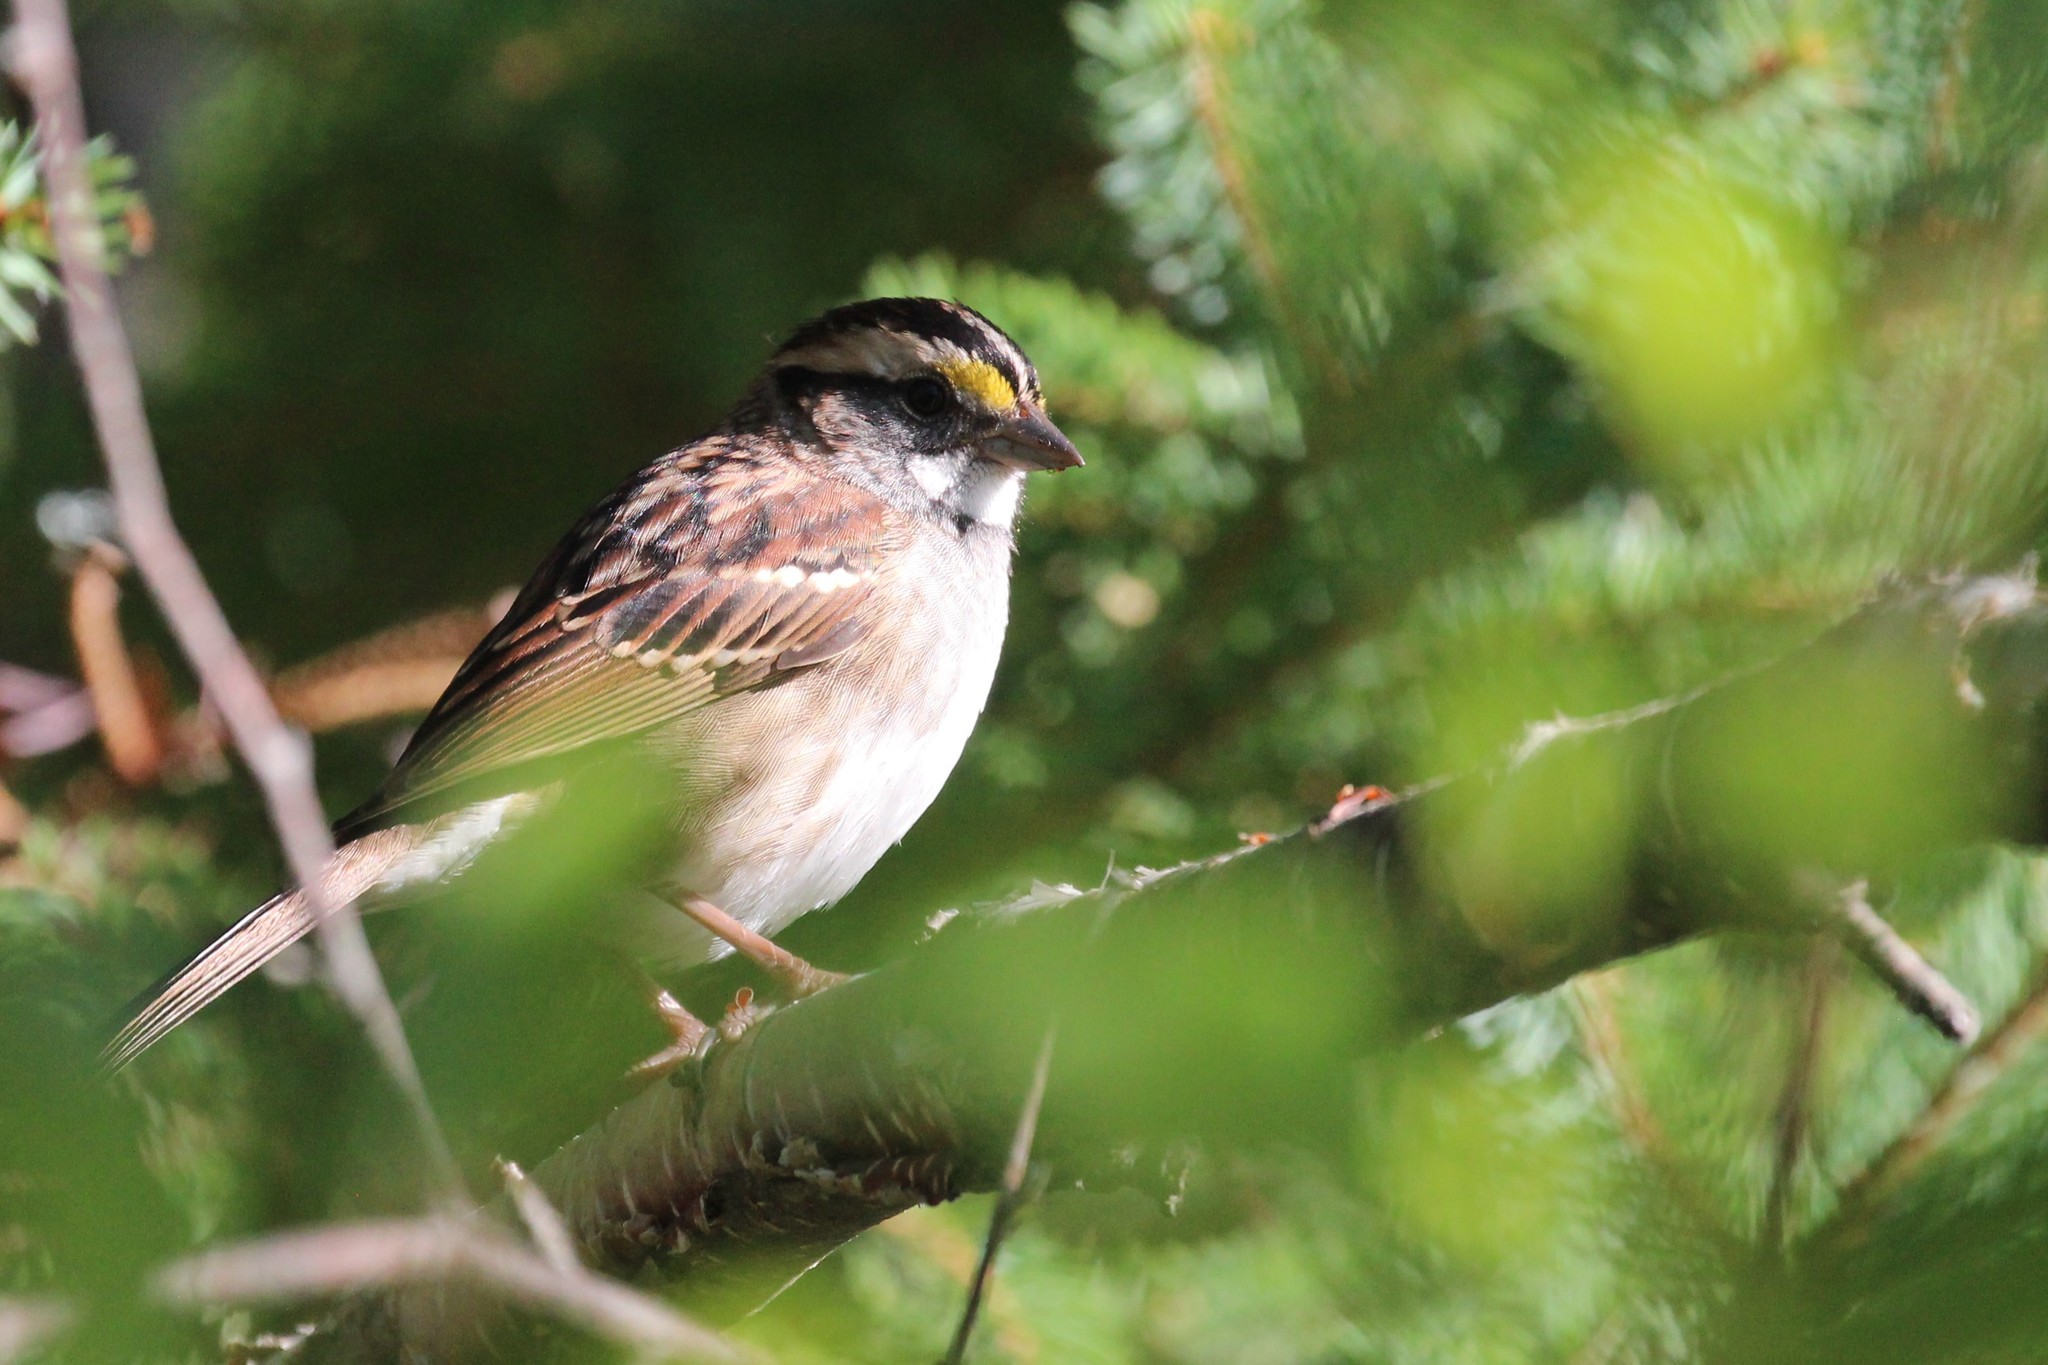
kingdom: Animalia
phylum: Chordata
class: Aves
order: Passeriformes
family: Passerellidae
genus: Zonotrichia
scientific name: Zonotrichia albicollis
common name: White-throated sparrow
